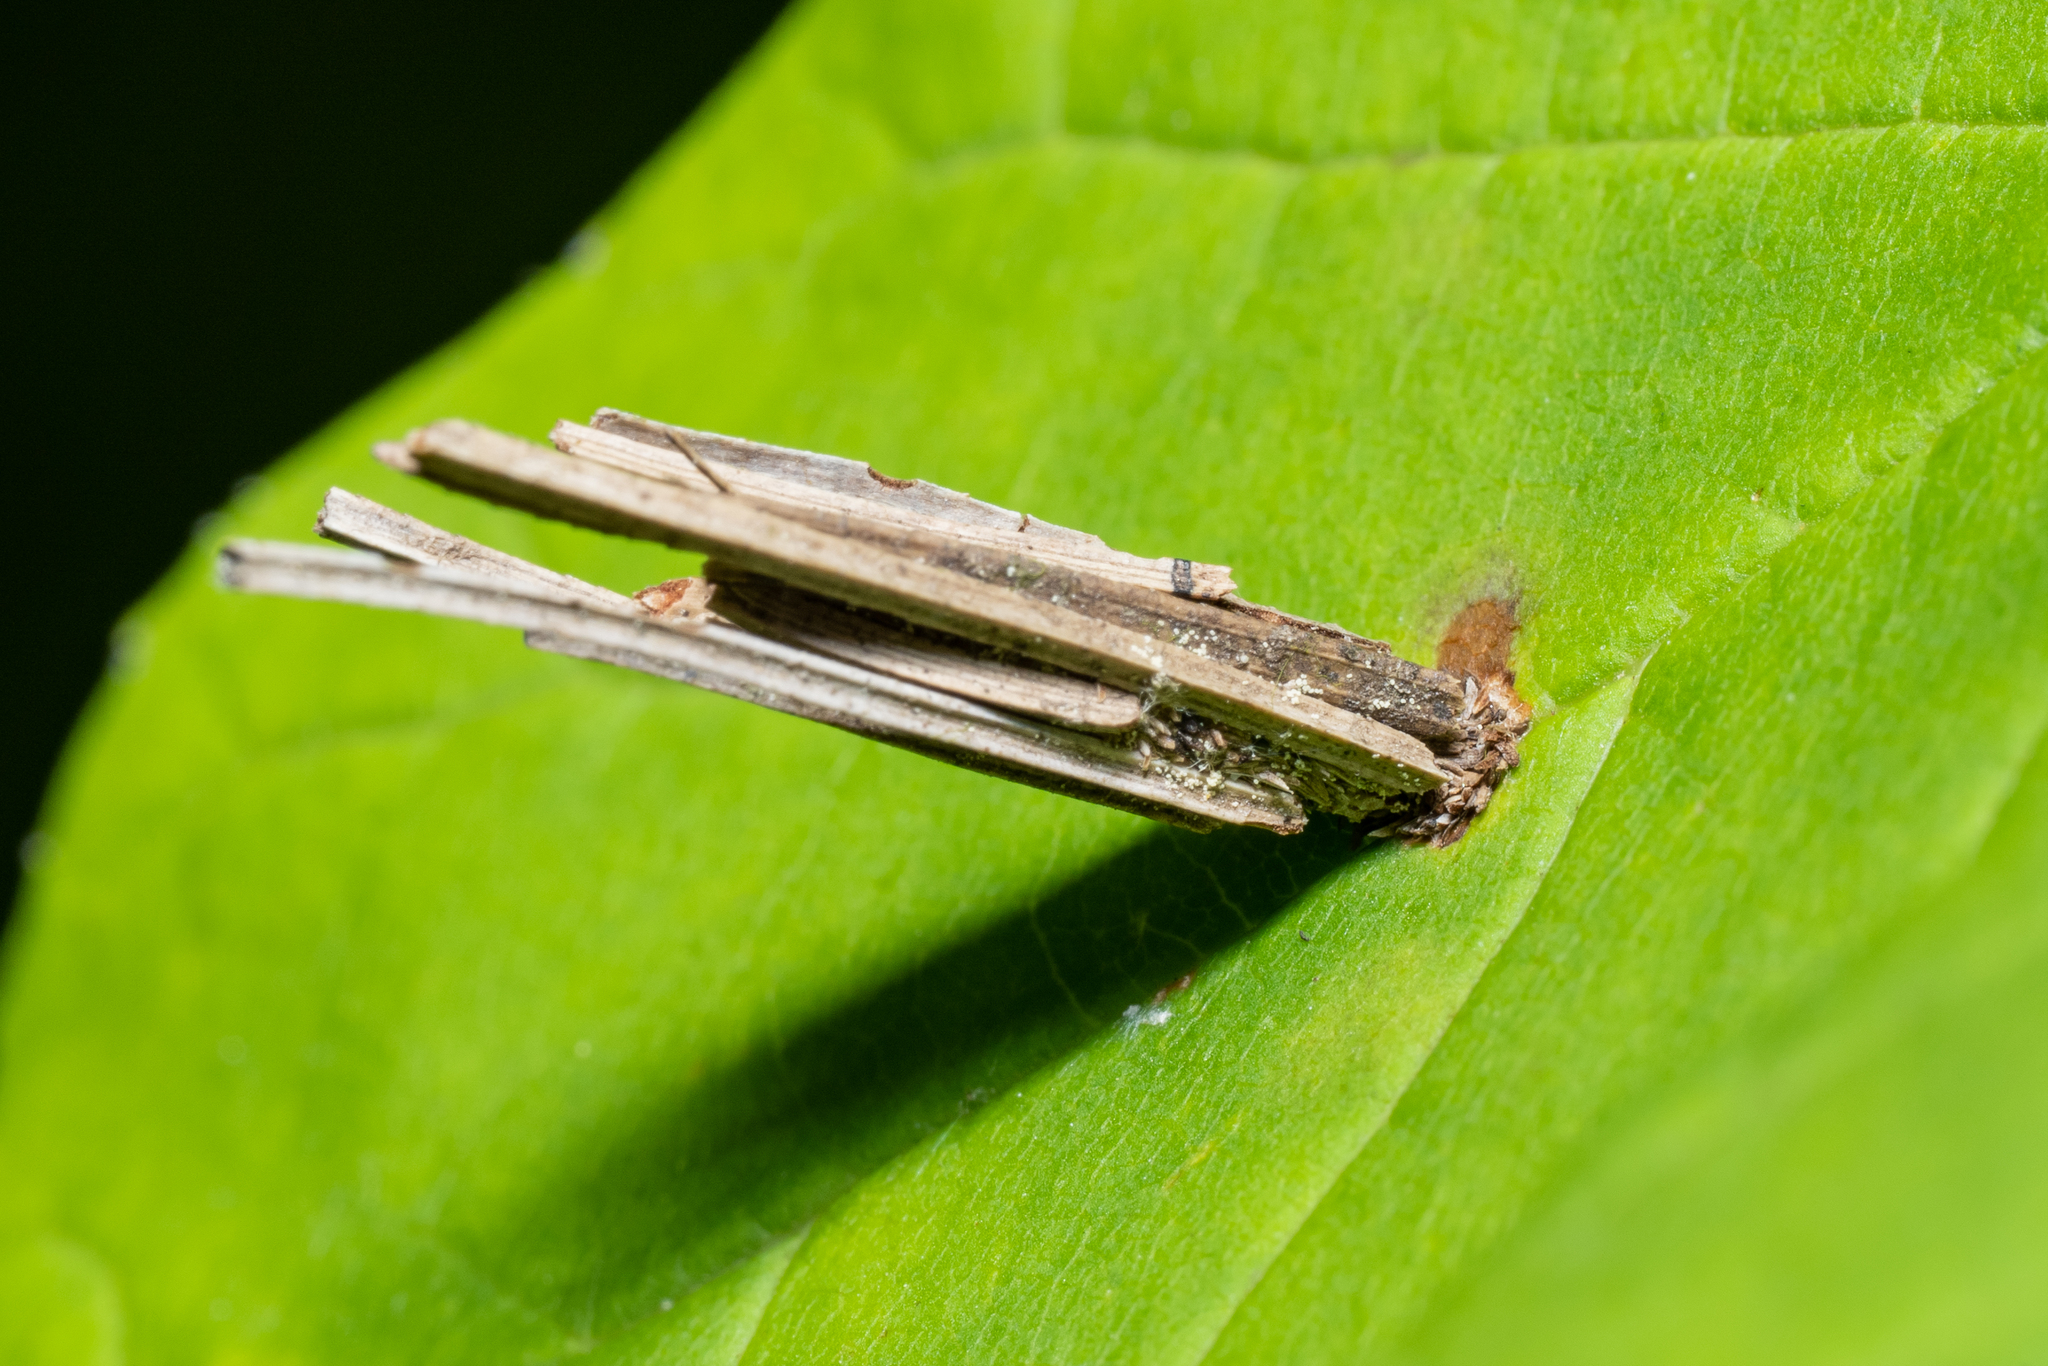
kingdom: Animalia
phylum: Arthropoda
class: Insecta
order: Lepidoptera
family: Psychidae
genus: Psyche
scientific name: Psyche casta
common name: Common sweep
